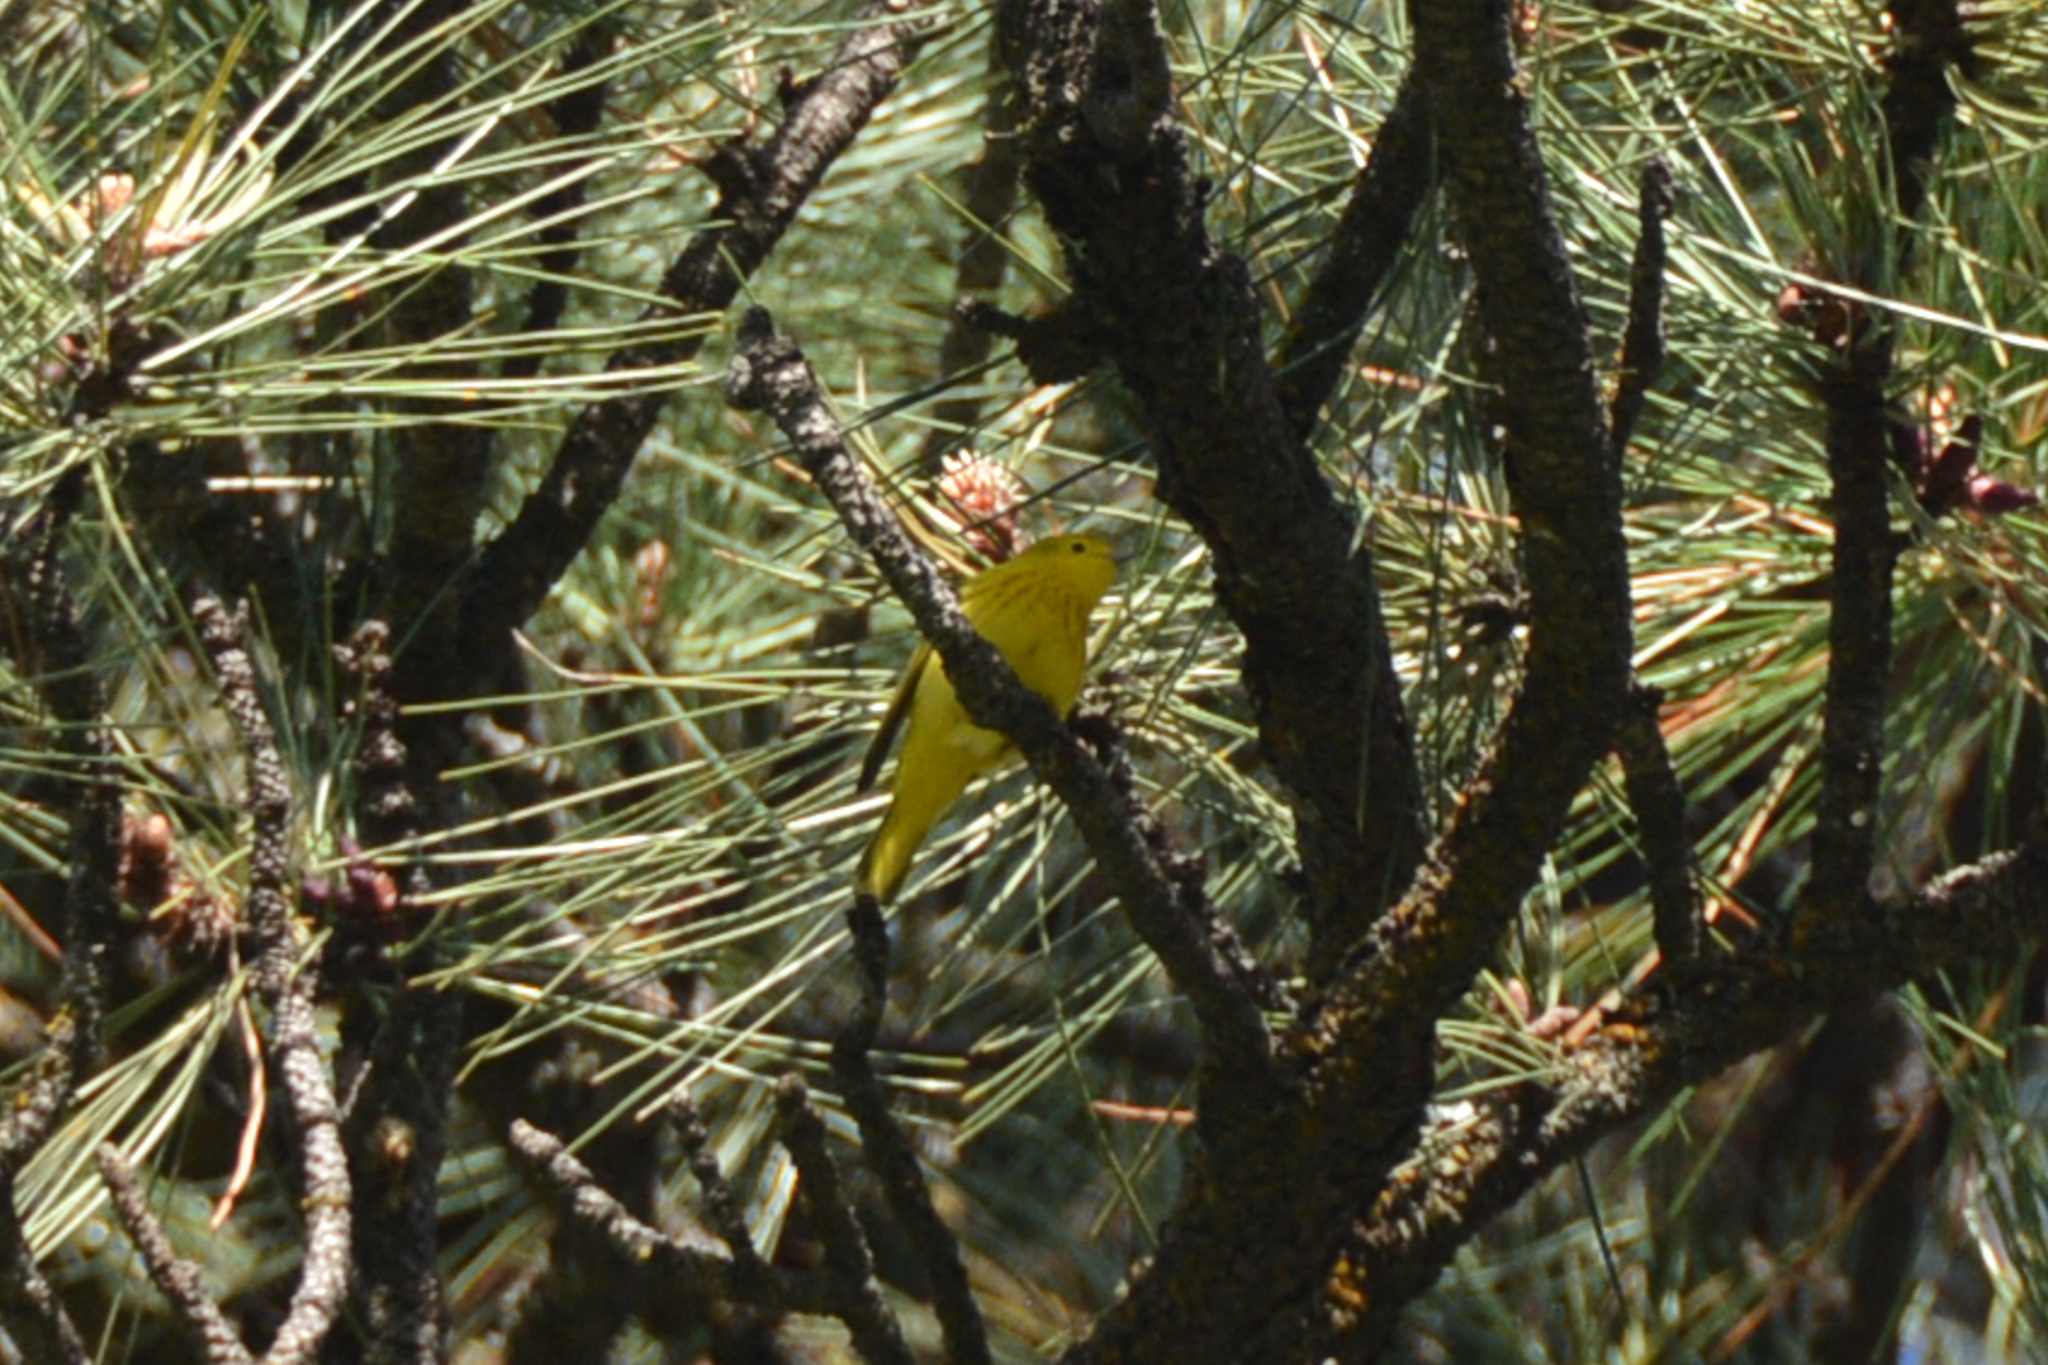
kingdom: Animalia
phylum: Chordata
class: Aves
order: Passeriformes
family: Parulidae
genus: Setophaga
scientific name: Setophaga petechia
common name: Yellow warbler
